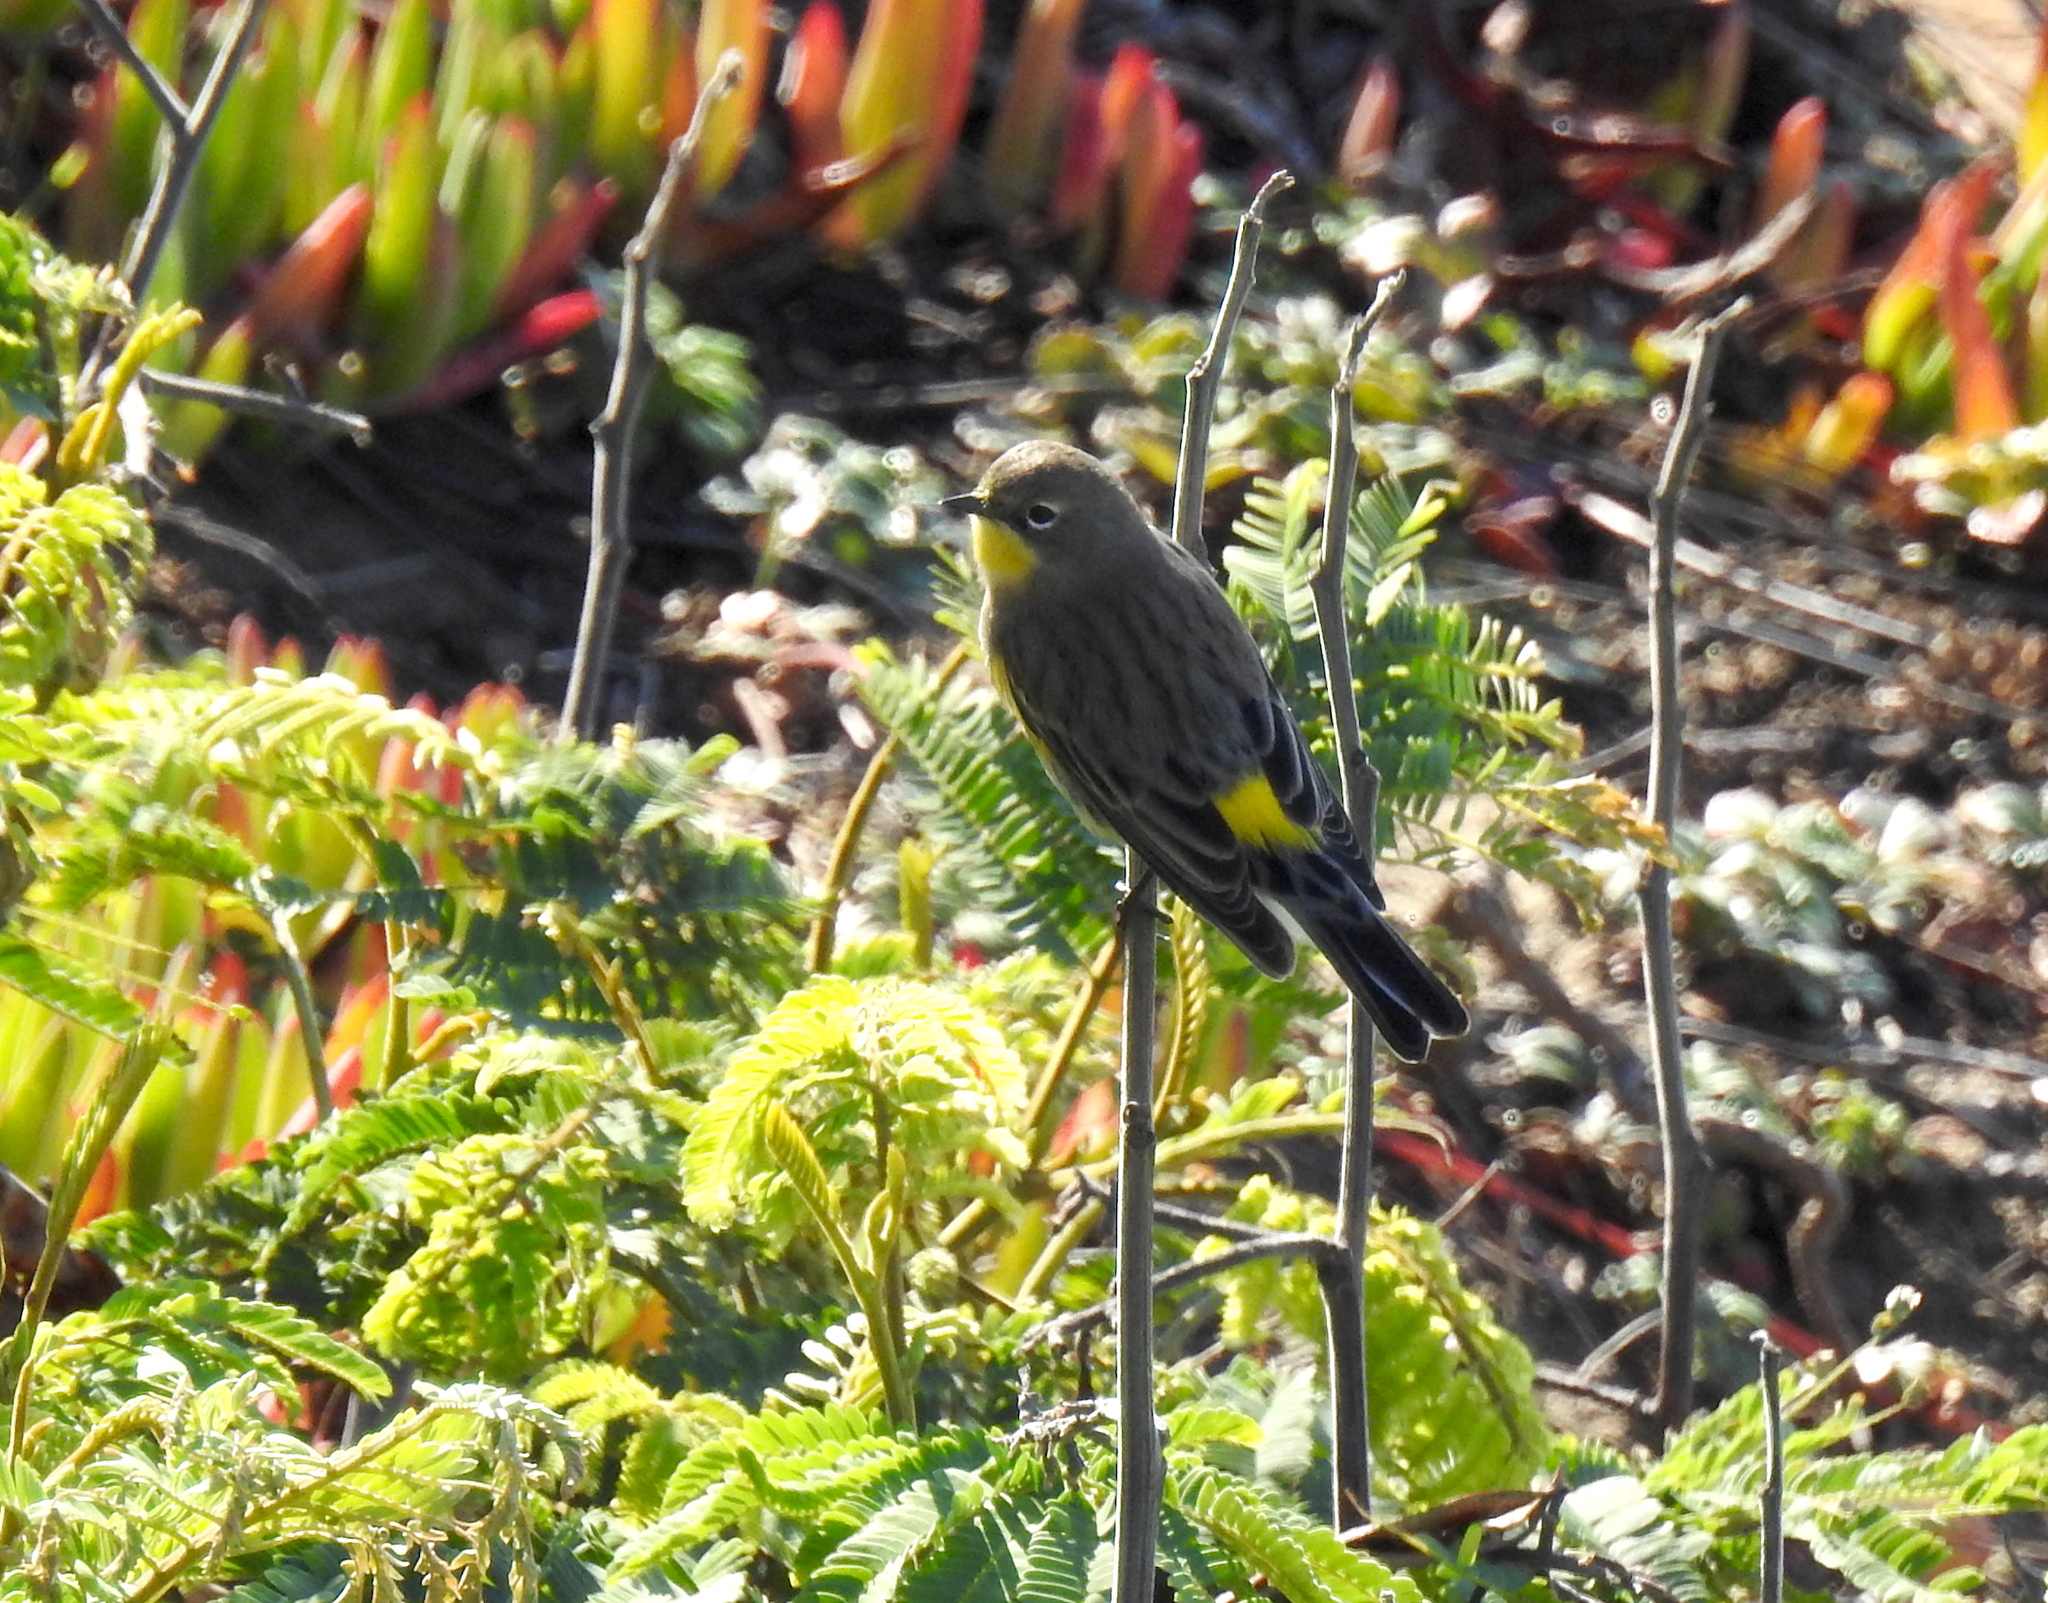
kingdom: Animalia
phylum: Chordata
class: Aves
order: Passeriformes
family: Parulidae
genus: Setophaga
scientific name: Setophaga auduboni
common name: Audubon's warbler
